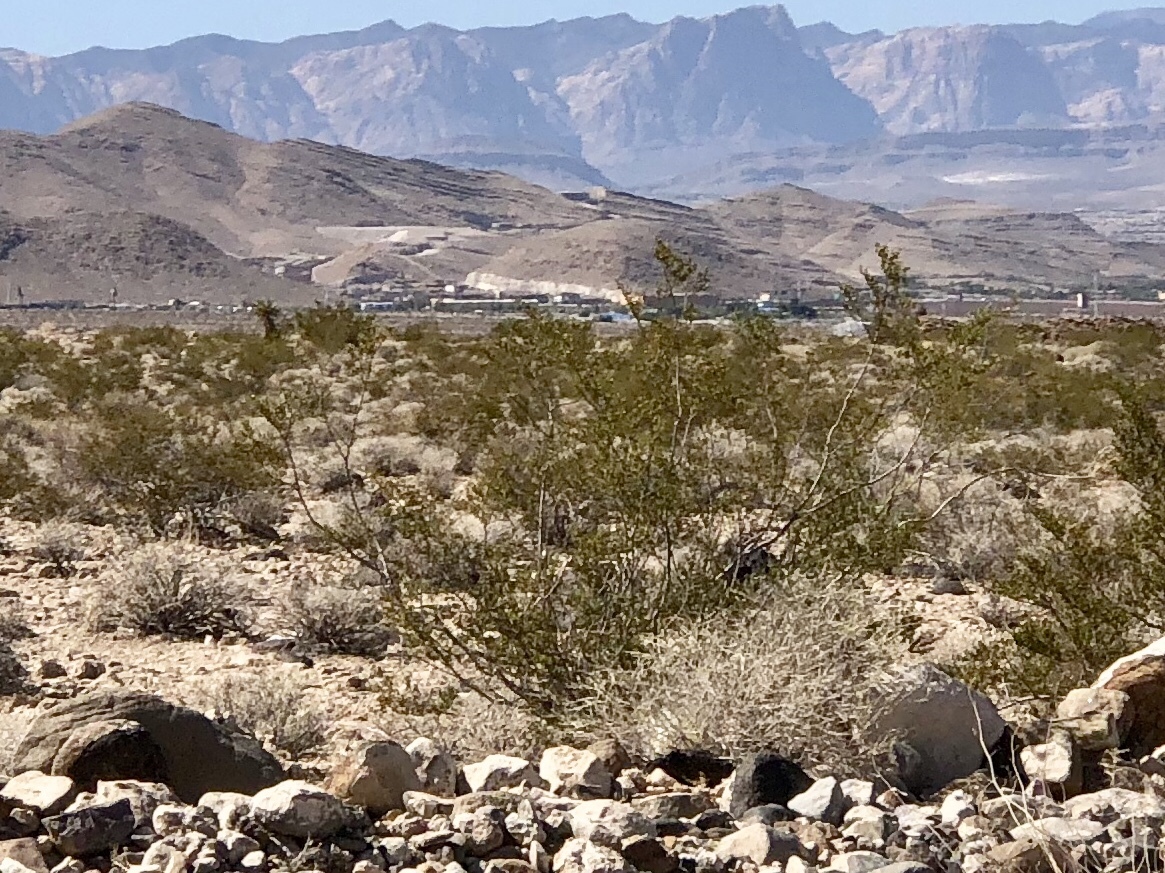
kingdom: Plantae
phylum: Tracheophyta
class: Magnoliopsida
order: Zygophyllales
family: Zygophyllaceae
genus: Larrea
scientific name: Larrea tridentata
